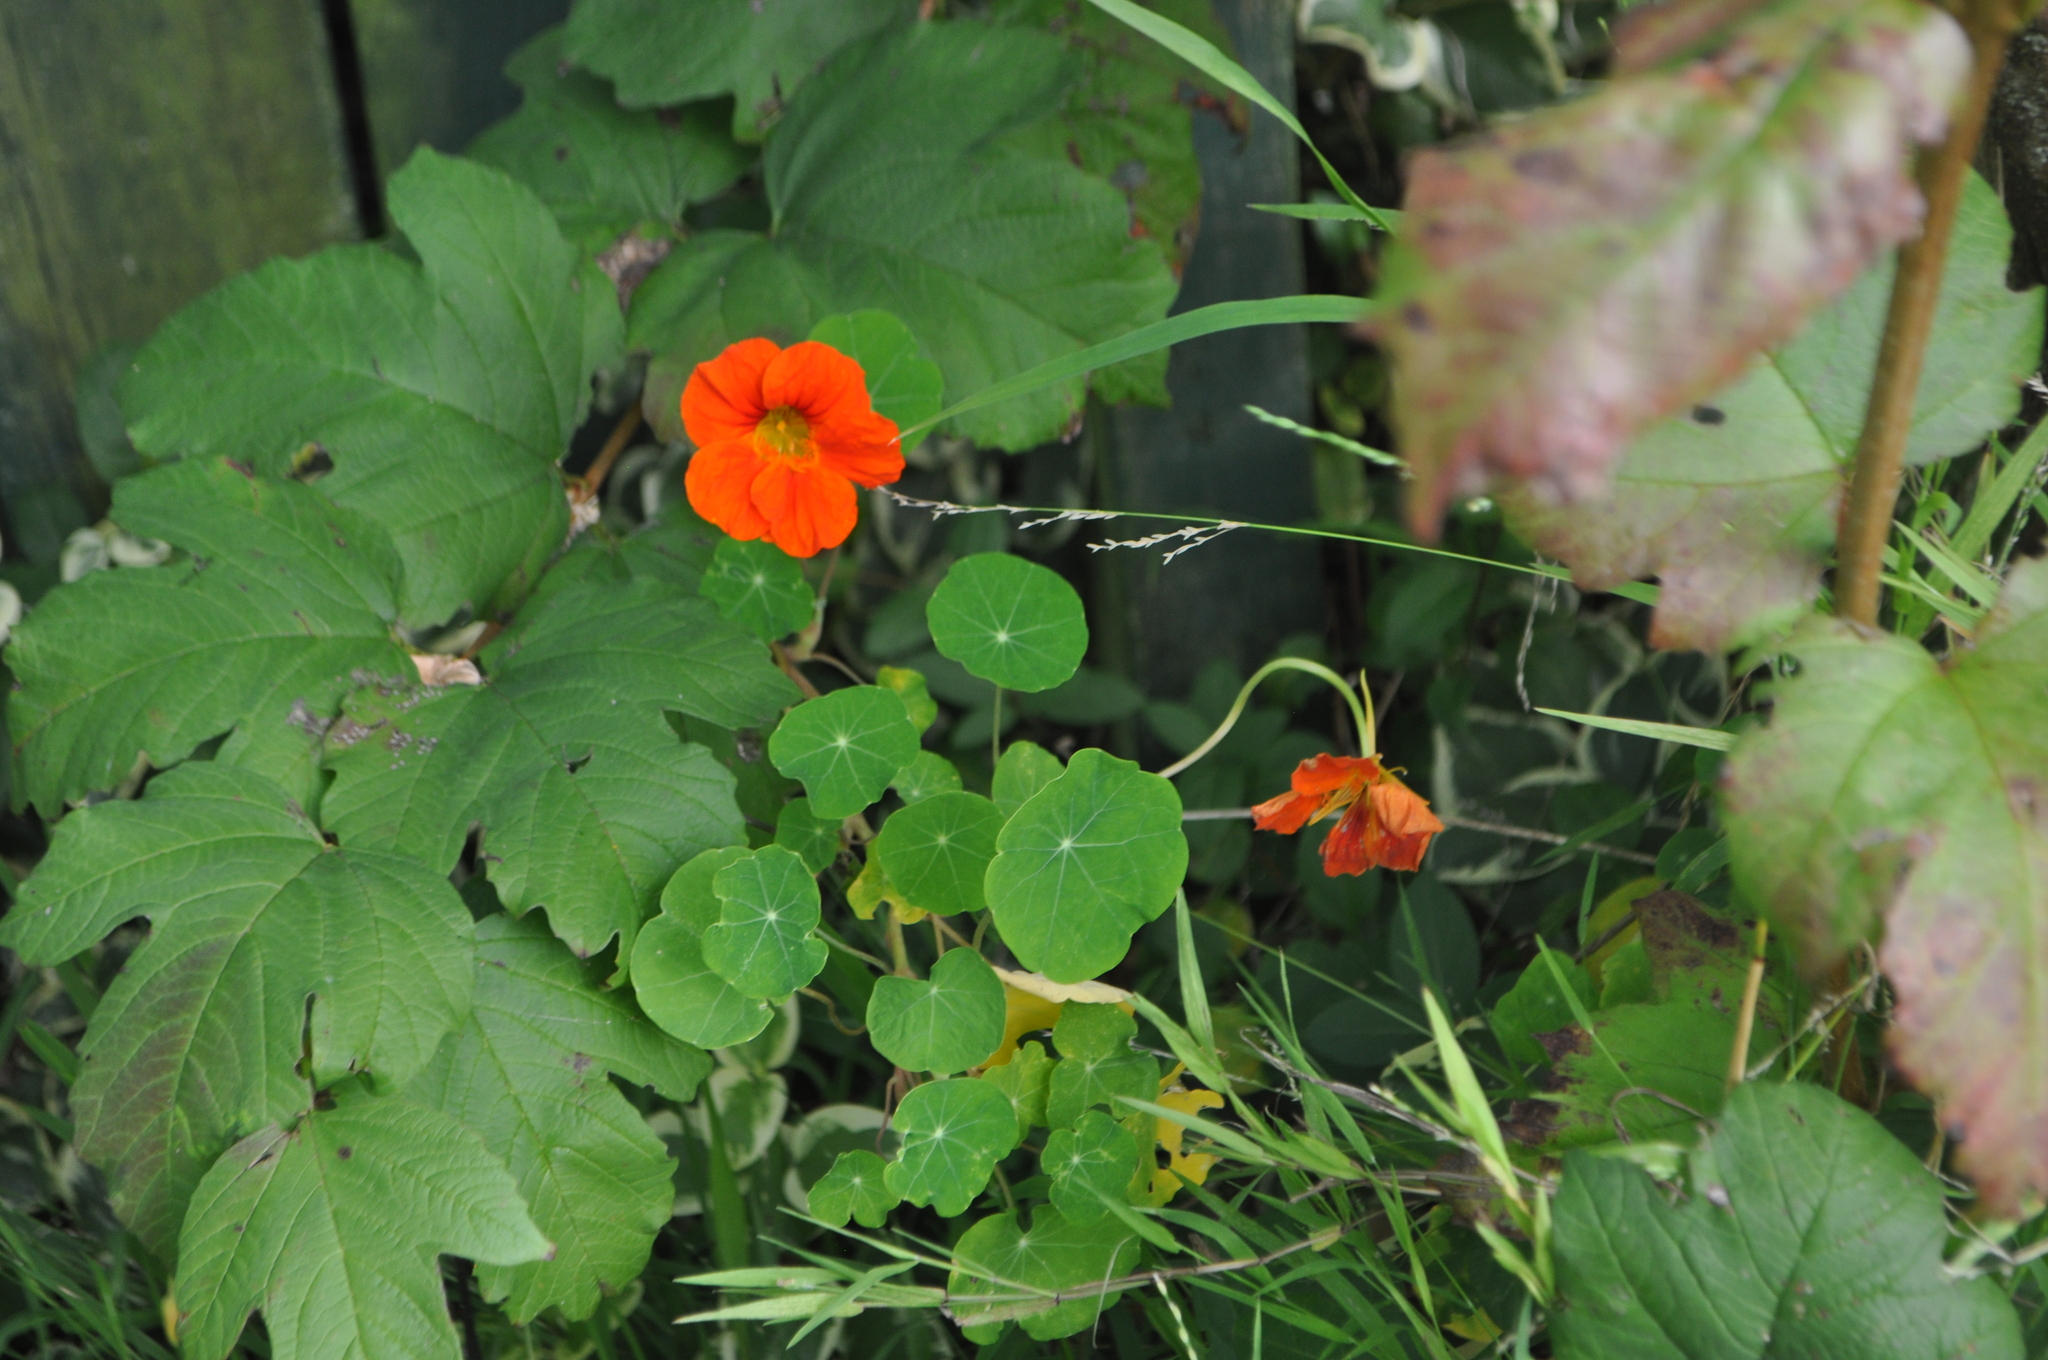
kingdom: Plantae
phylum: Tracheophyta
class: Magnoliopsida
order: Brassicales
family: Tropaeolaceae
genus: Tropaeolum
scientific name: Tropaeolum majus
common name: Nasturtium
